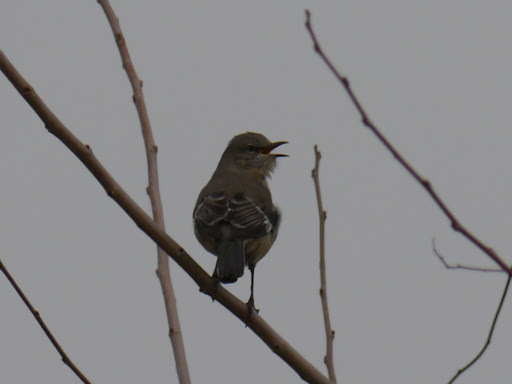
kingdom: Animalia
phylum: Chordata
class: Aves
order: Passeriformes
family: Mimidae
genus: Mimus
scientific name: Mimus polyglottos
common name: Northern mockingbird
